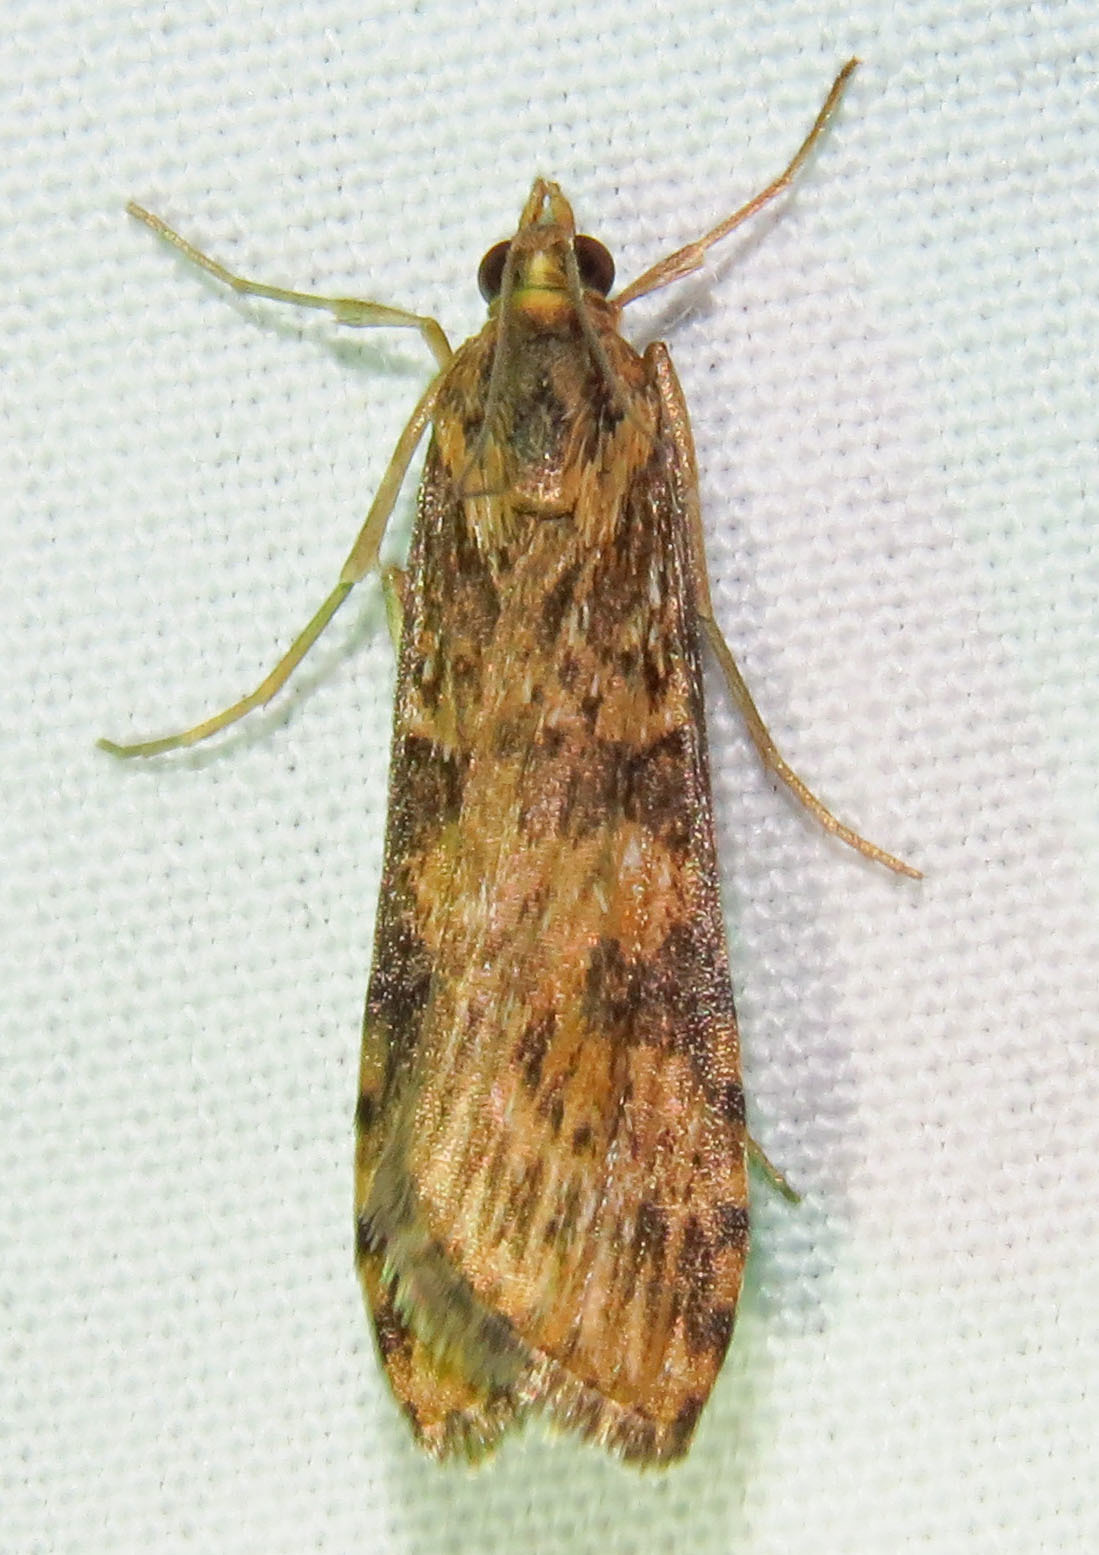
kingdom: Animalia
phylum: Arthropoda
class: Insecta
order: Lepidoptera
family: Crambidae
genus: Nomophila
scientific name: Nomophila nearctica
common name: American rush veneer
